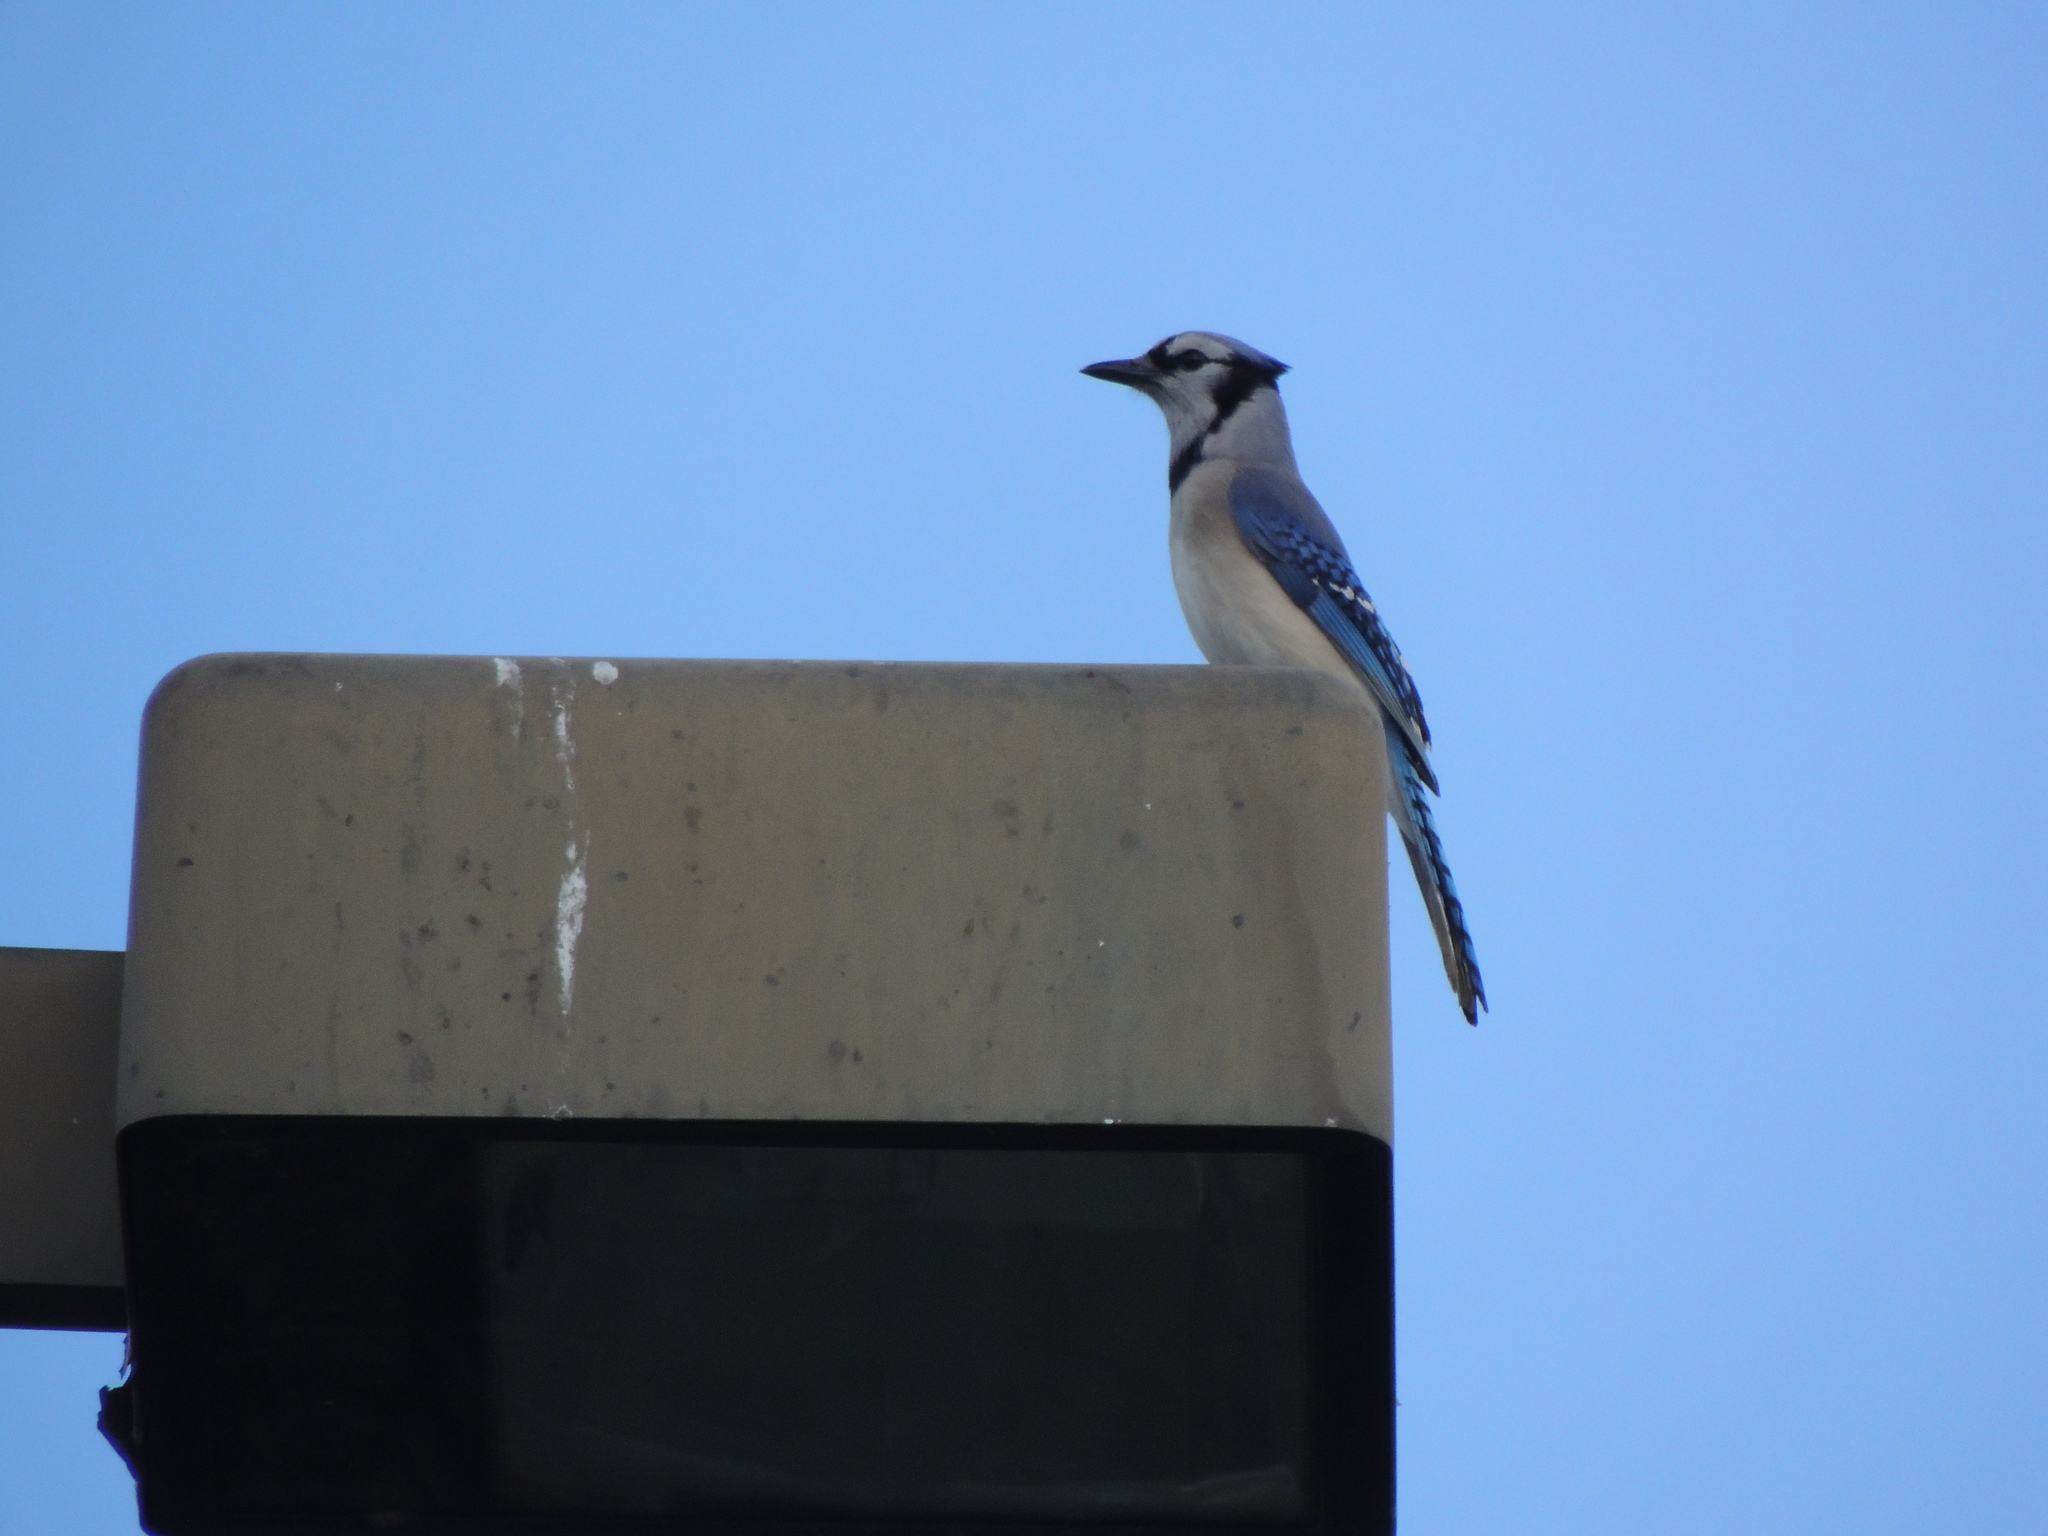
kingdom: Animalia
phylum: Chordata
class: Aves
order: Passeriformes
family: Corvidae
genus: Cyanocitta
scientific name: Cyanocitta cristata
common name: Blue jay
